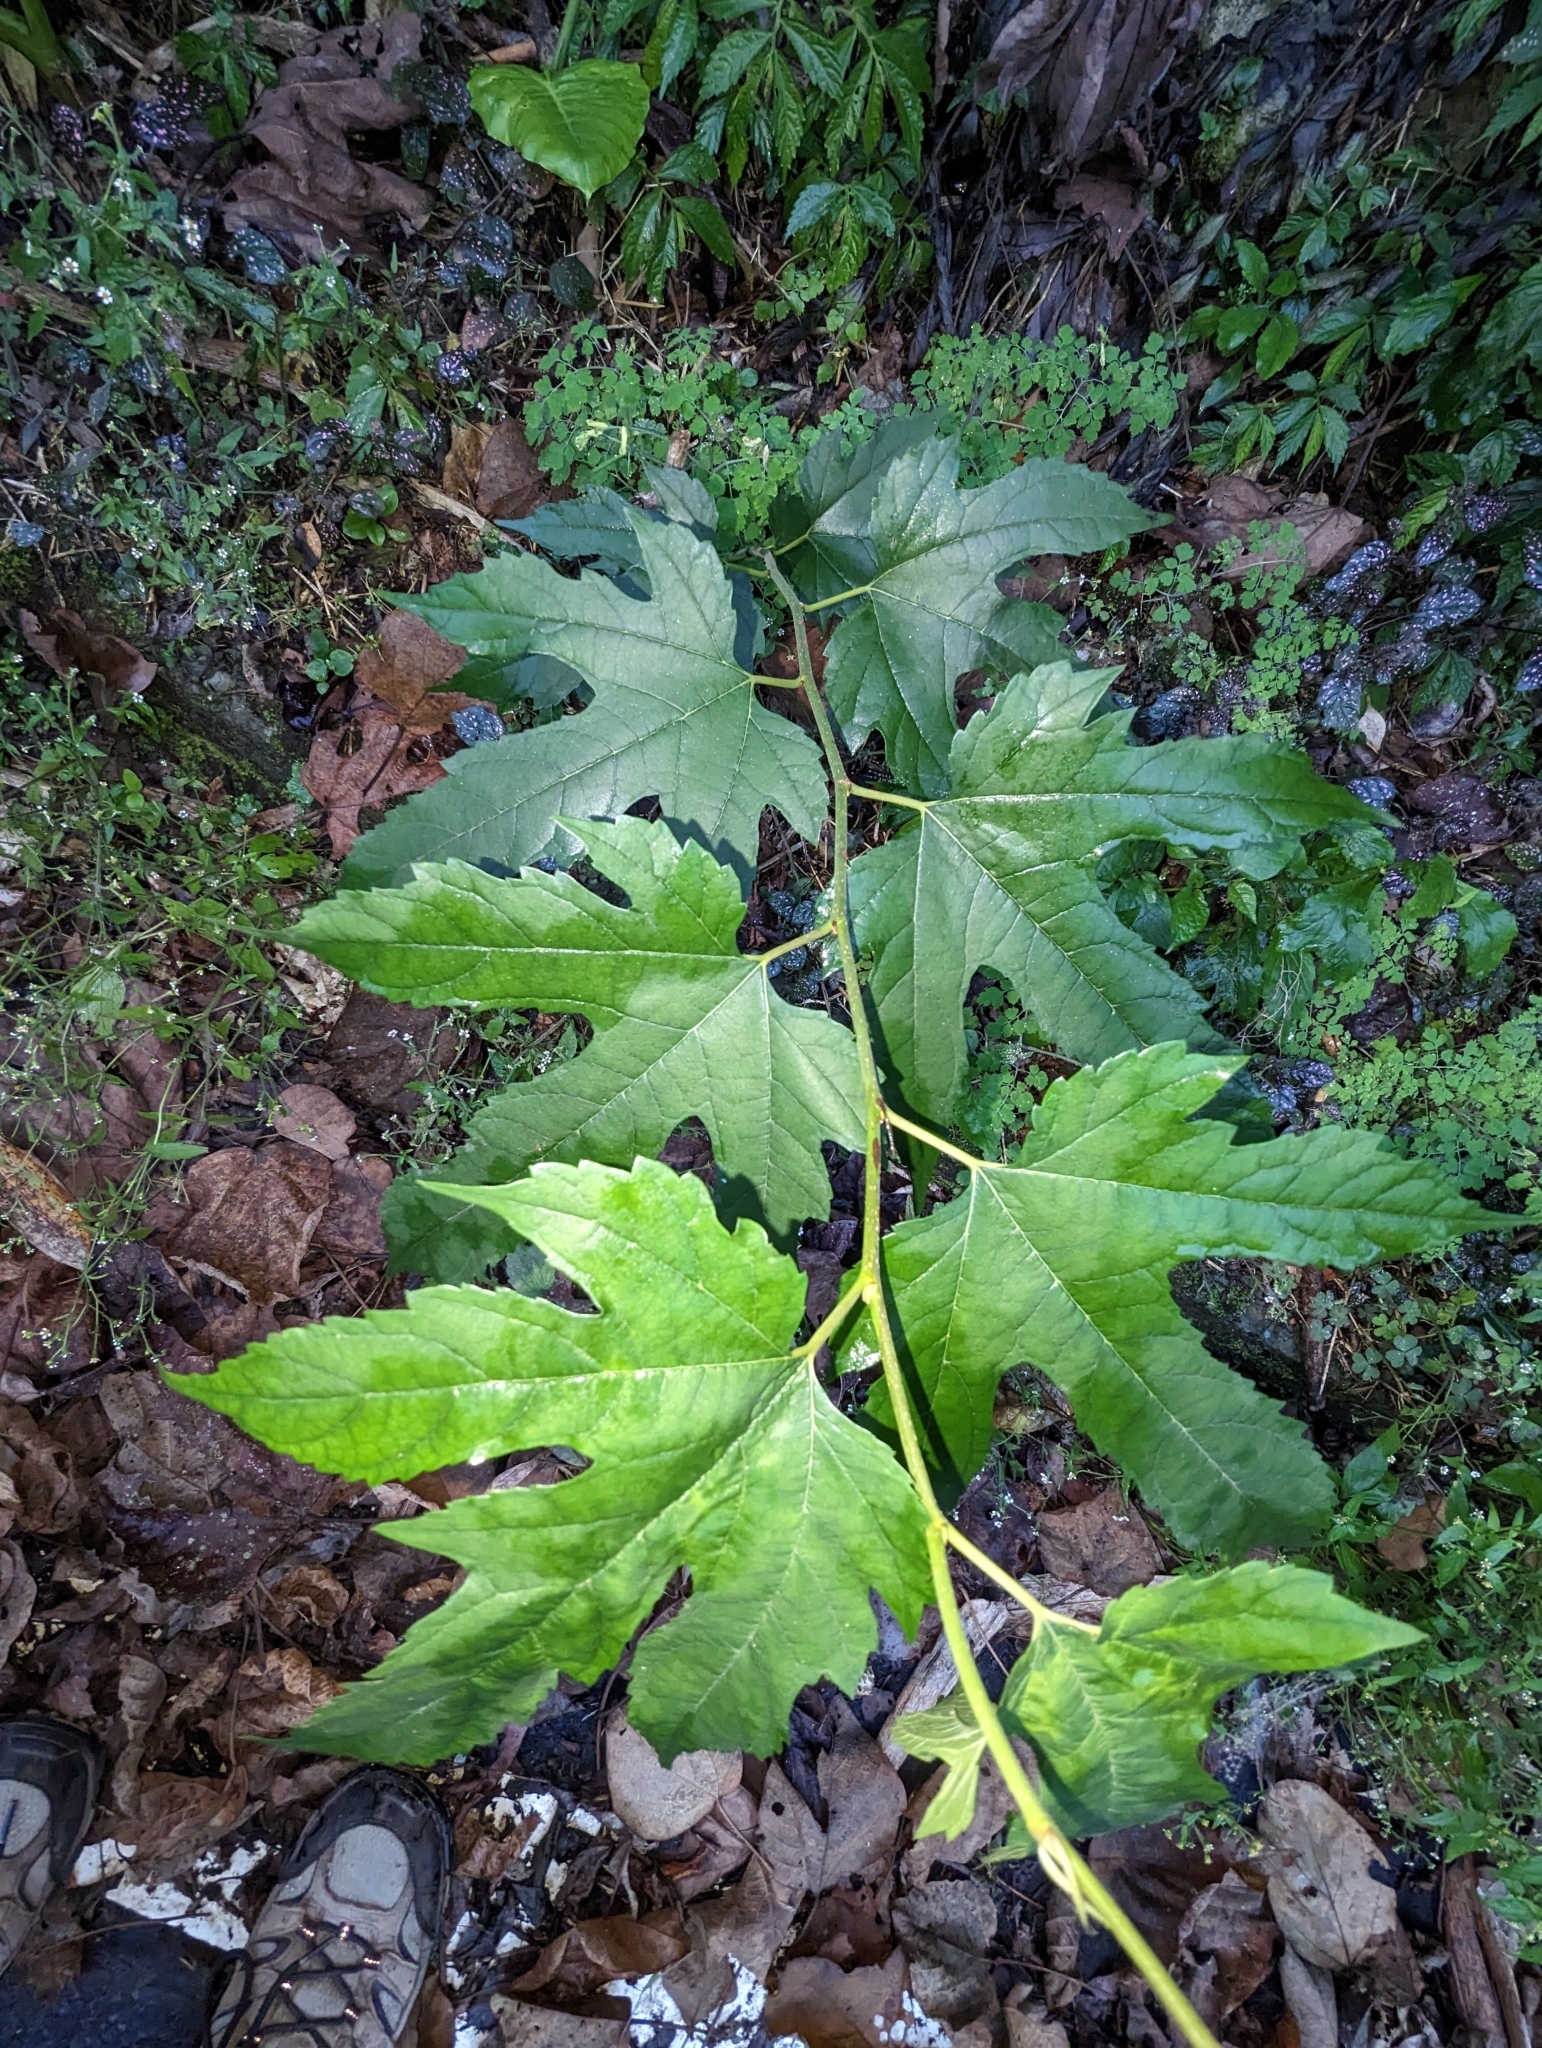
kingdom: Plantae
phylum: Tracheophyta
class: Magnoliopsida
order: Rosales
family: Moraceae
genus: Morus
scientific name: Morus indica
